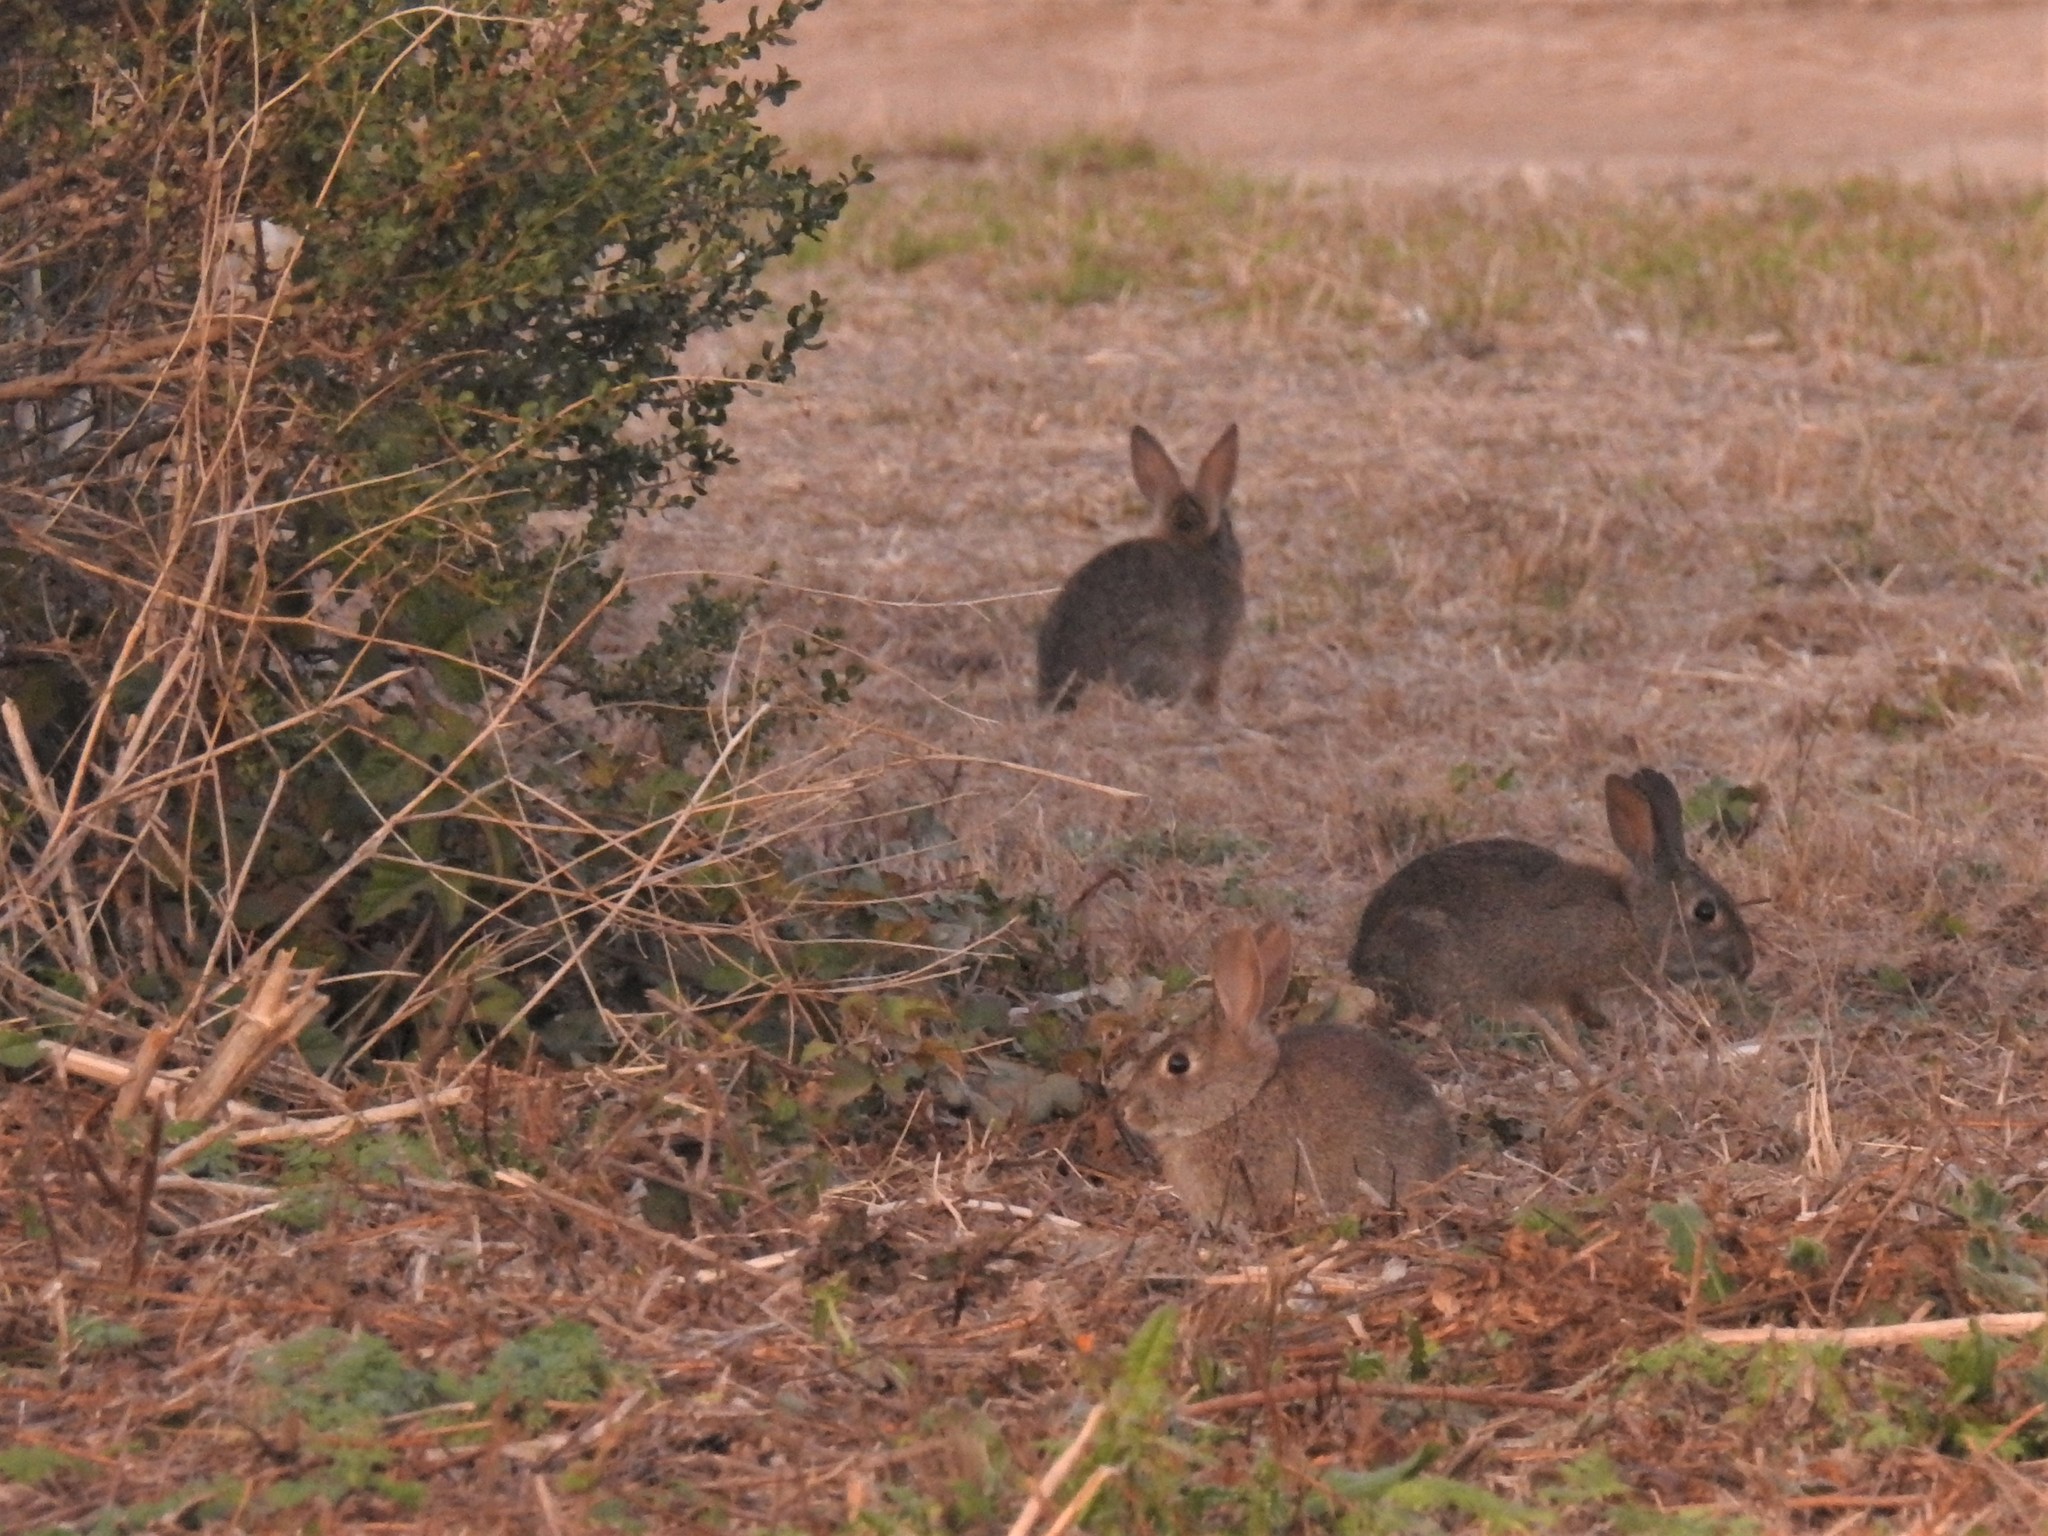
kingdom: Animalia
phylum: Chordata
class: Mammalia
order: Lagomorpha
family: Leporidae
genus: Sylvilagus
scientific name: Sylvilagus bachmani
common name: Brush rabbit
